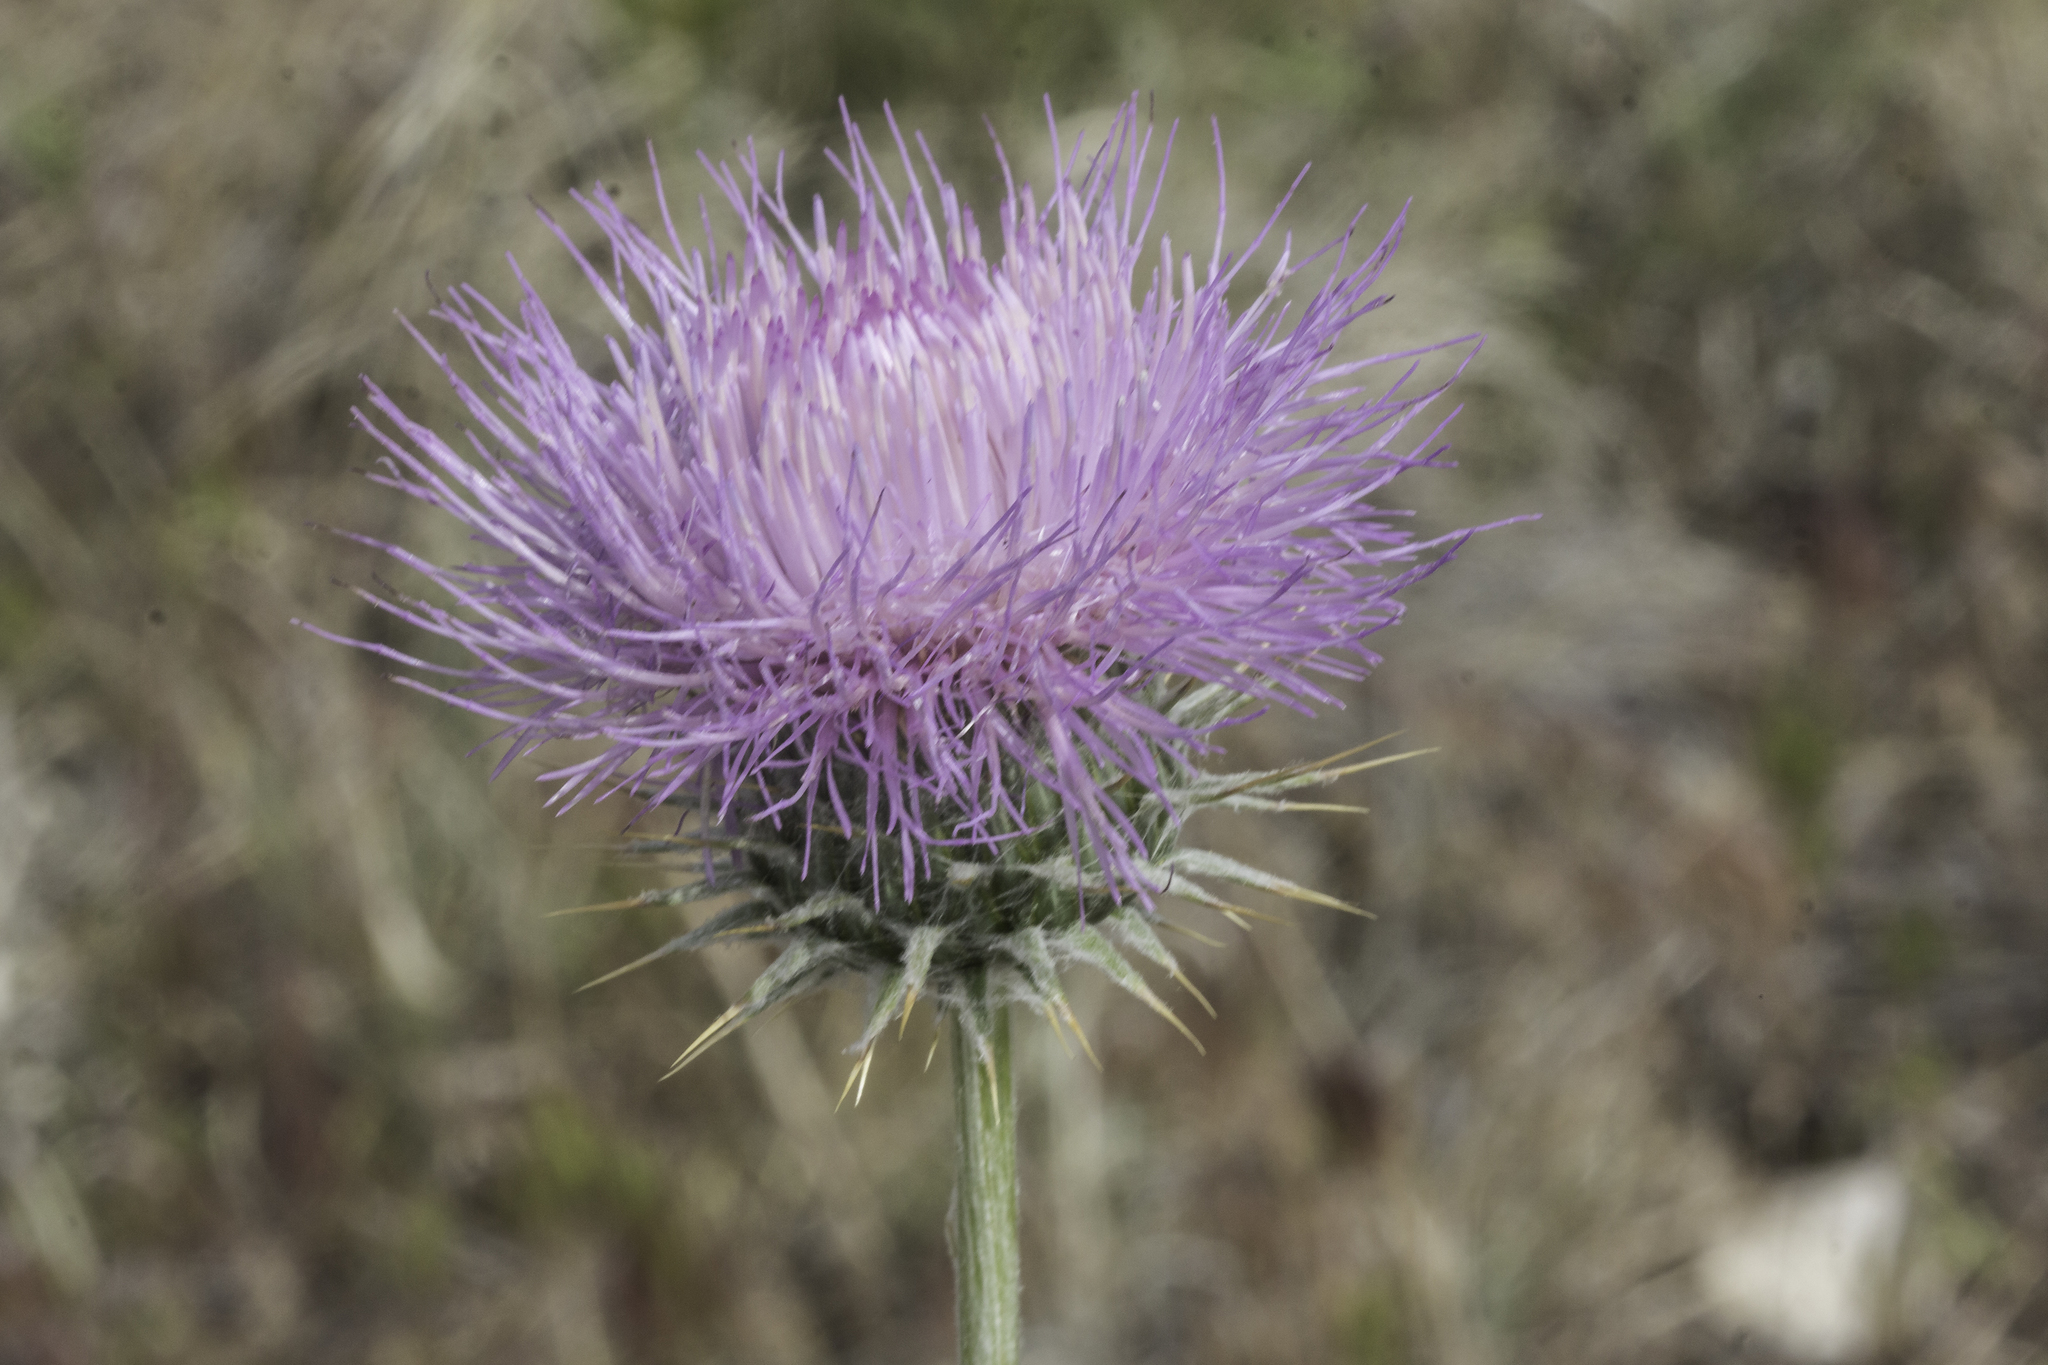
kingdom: Plantae
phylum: Tracheophyta
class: Magnoliopsida
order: Asterales
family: Asteraceae
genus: Cirsium
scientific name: Cirsium neomexicanum
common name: New mexico thistle
